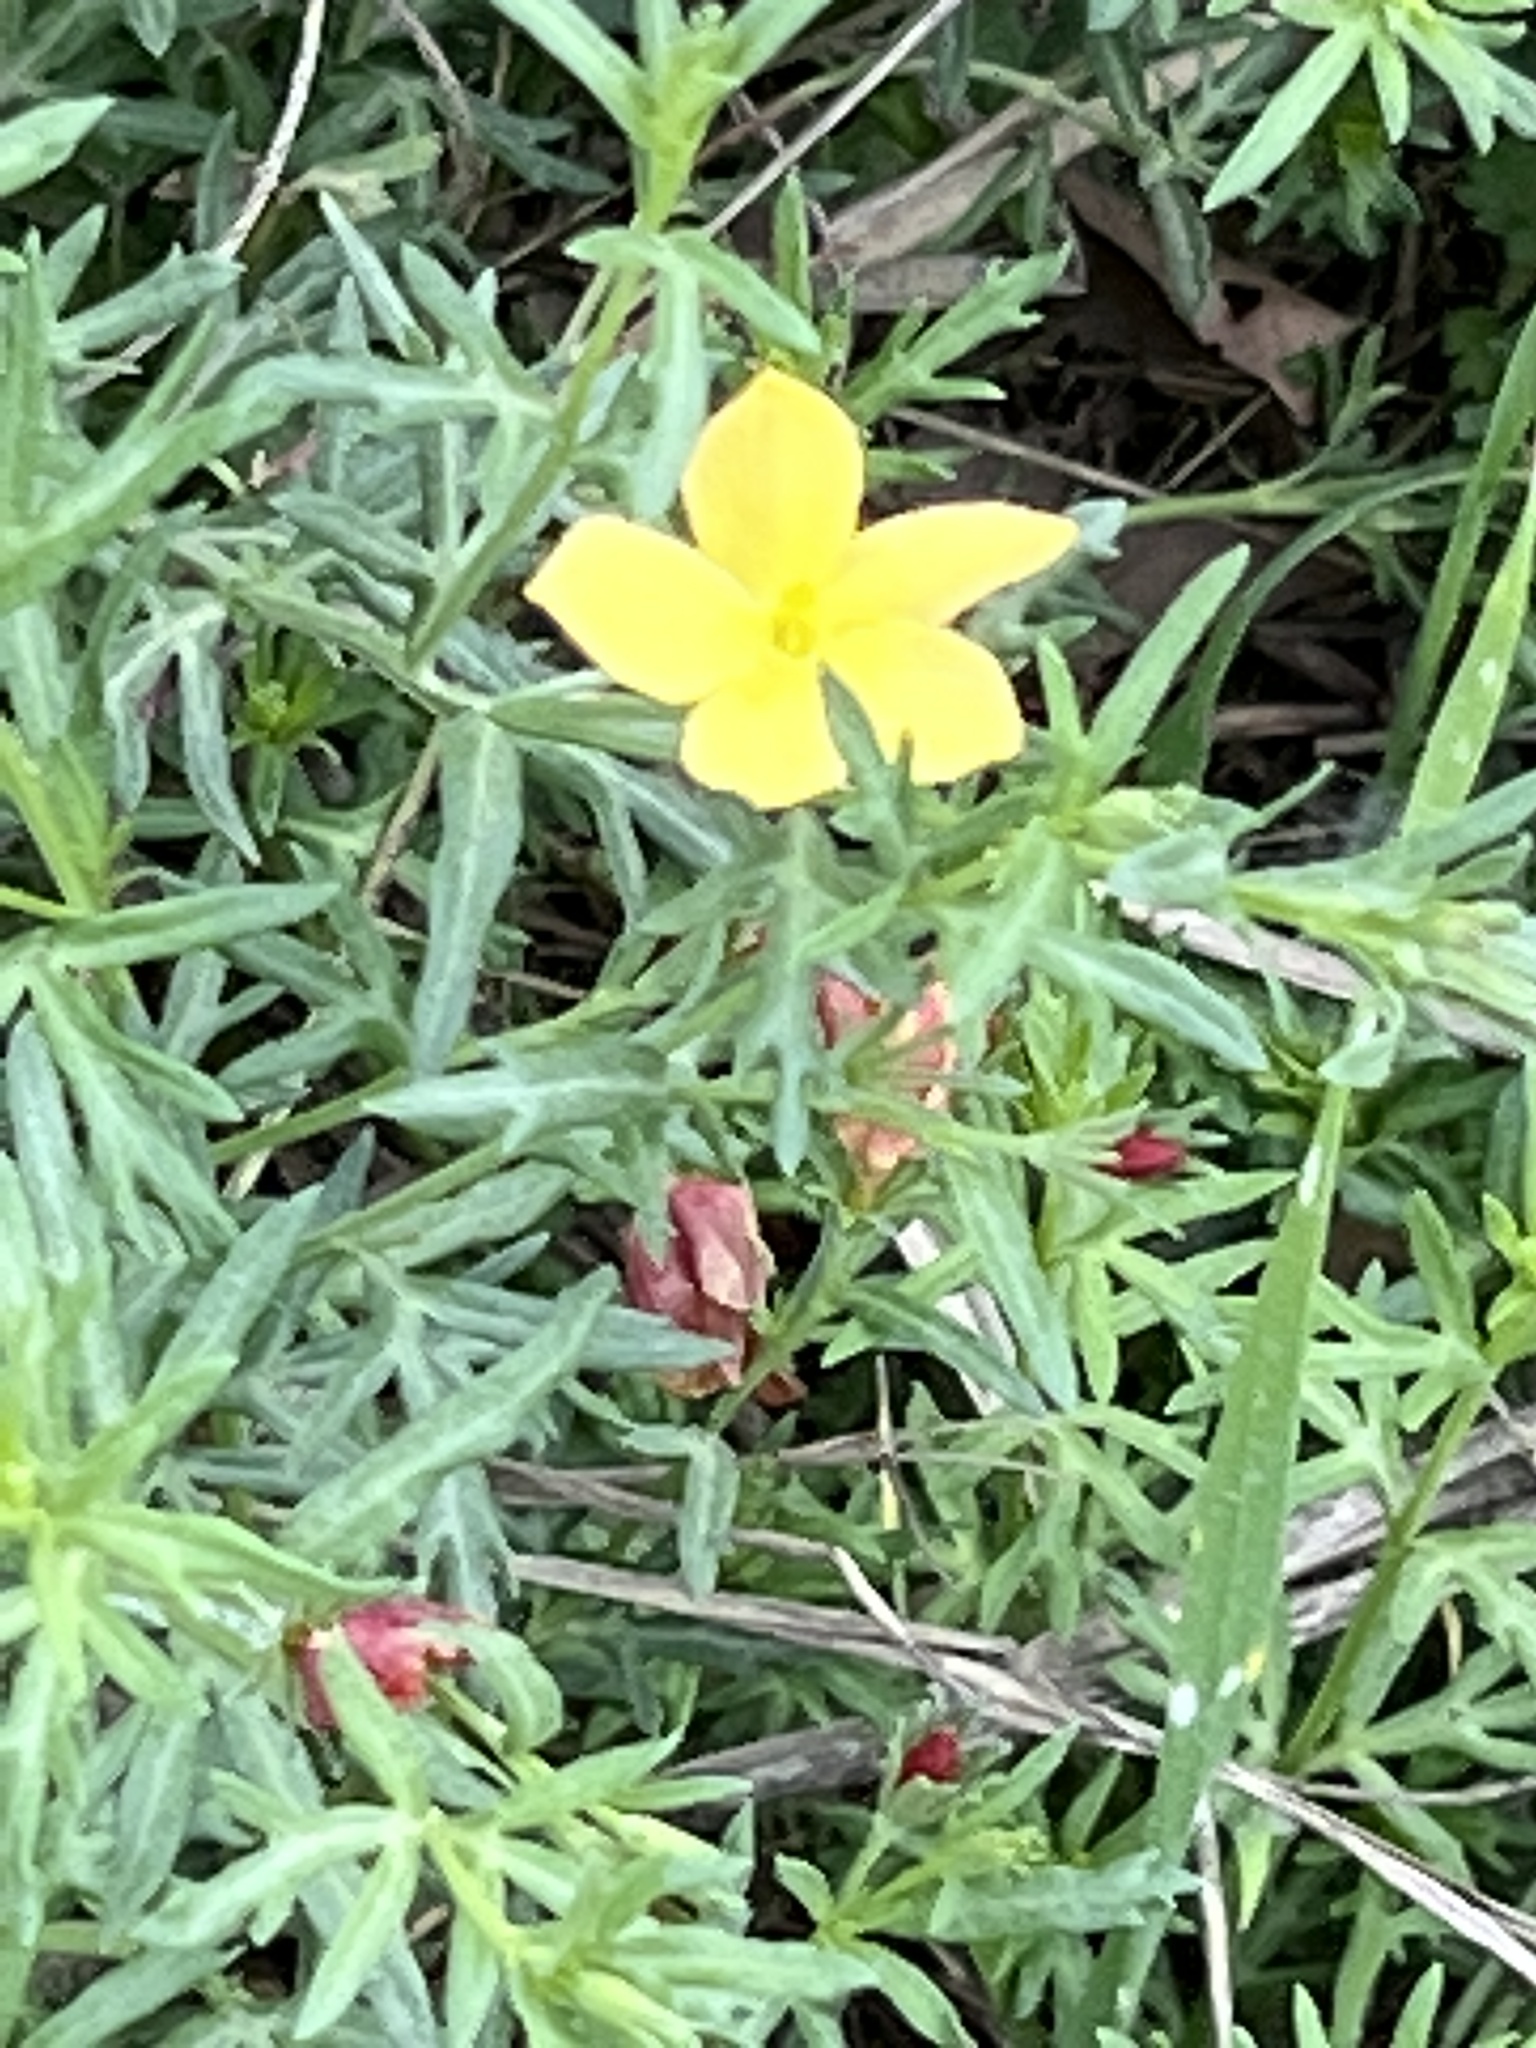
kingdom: Plantae
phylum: Tracheophyta
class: Magnoliopsida
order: Lamiales
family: Oleaceae
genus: Menodora
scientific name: Menodora heterophylla
